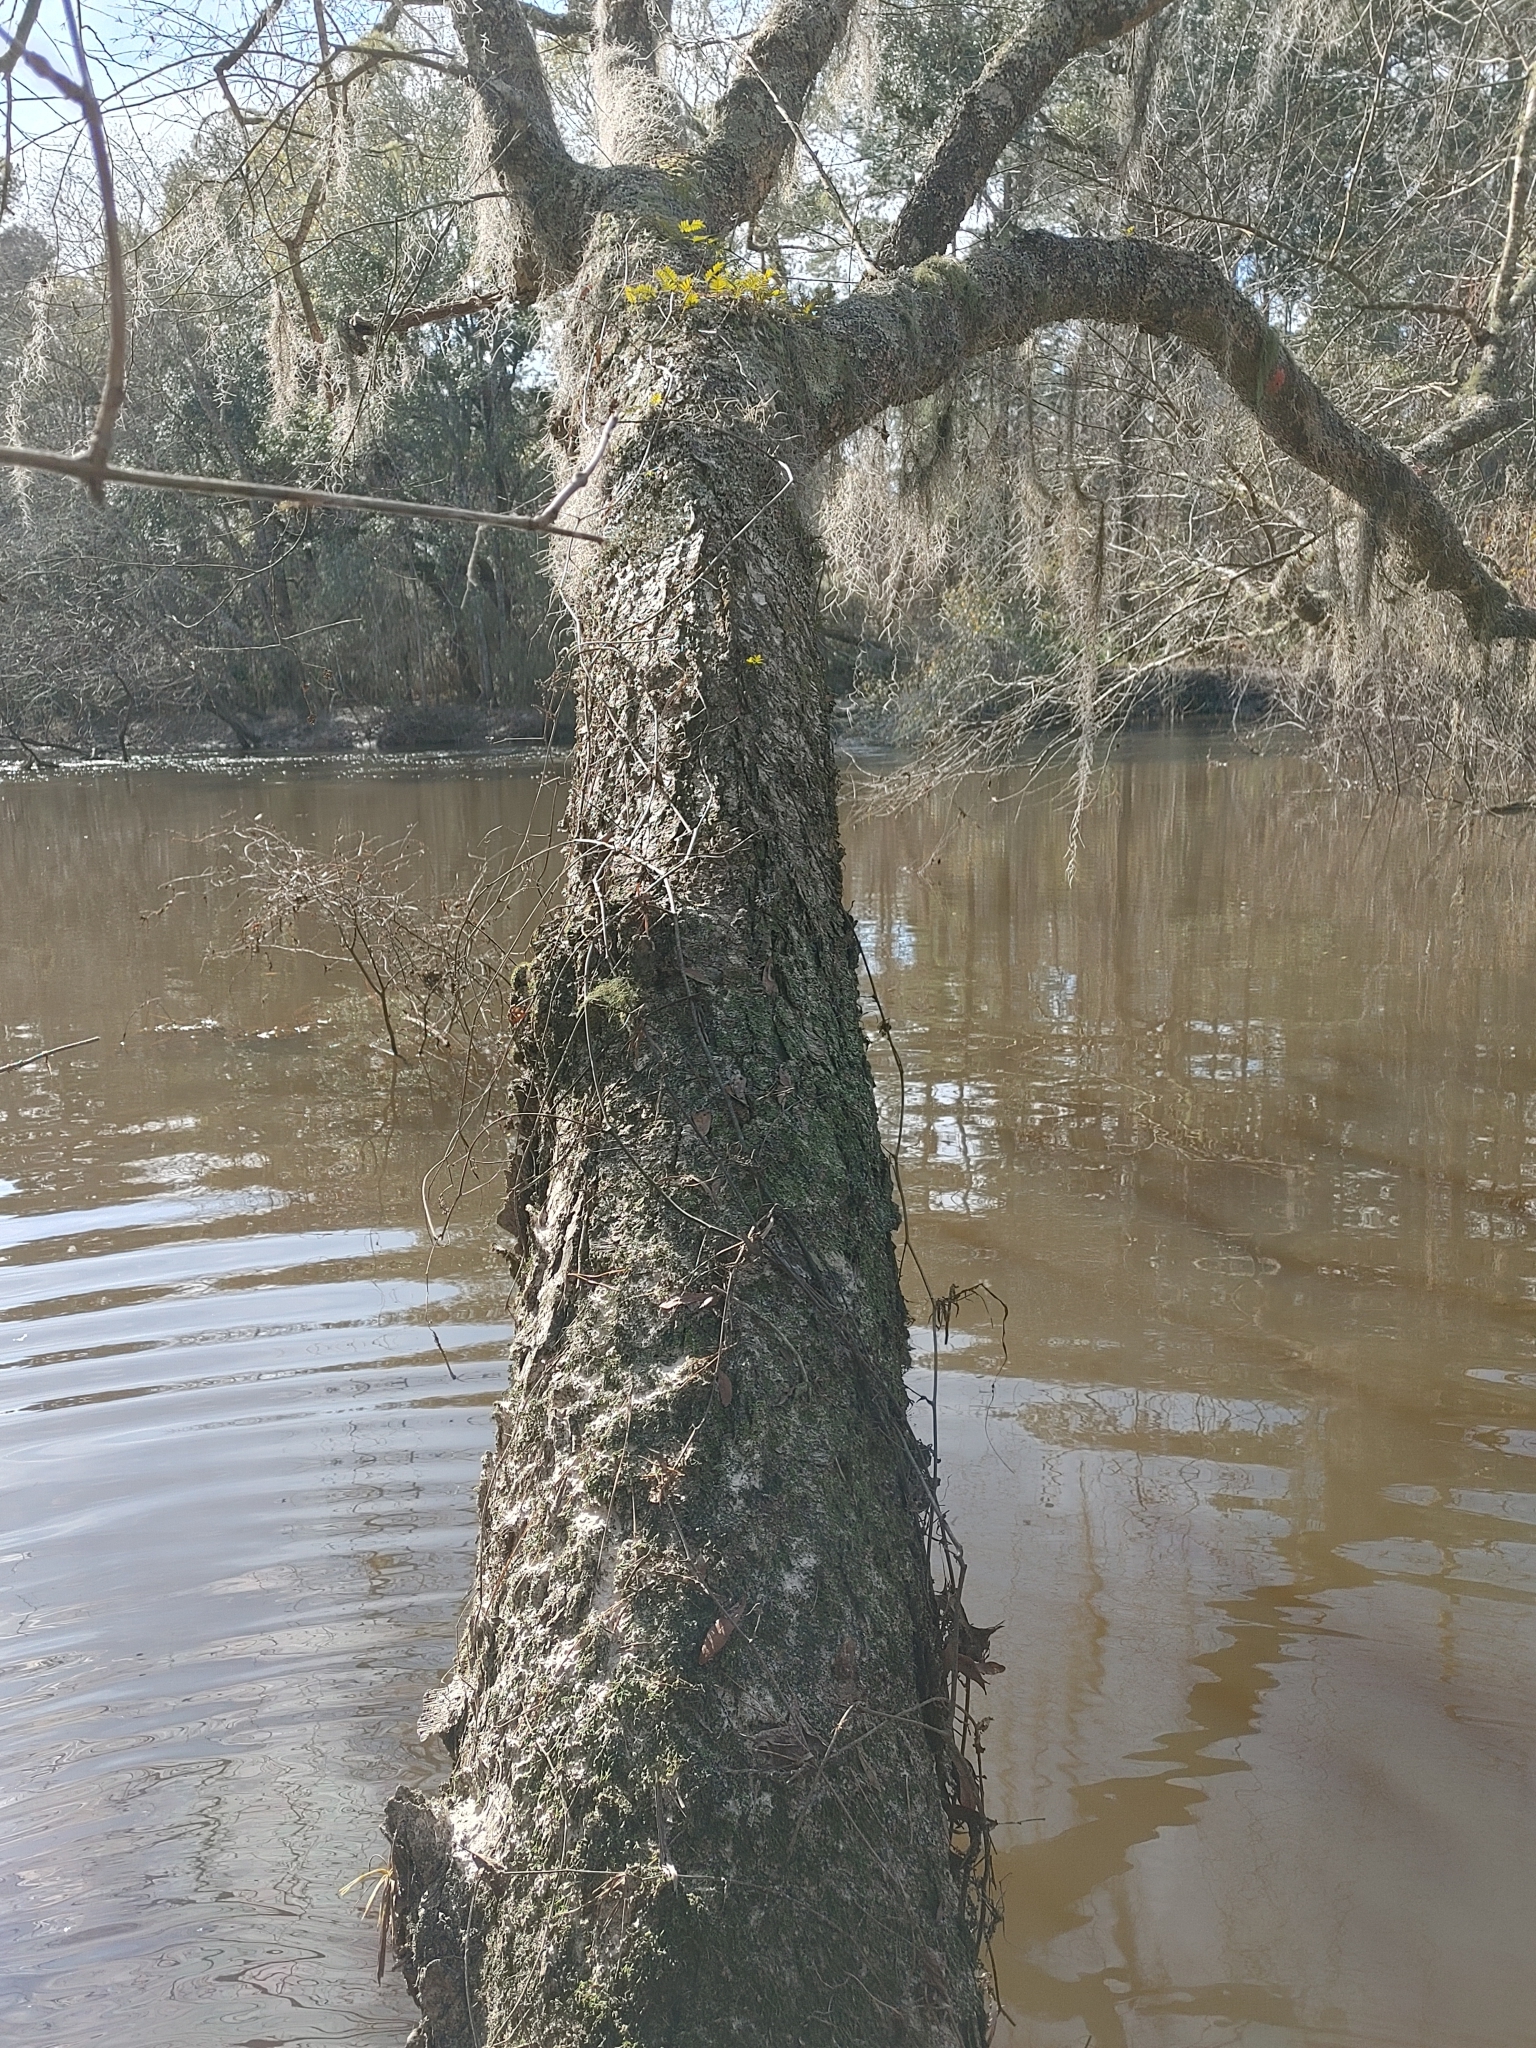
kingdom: Plantae
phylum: Tracheophyta
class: Magnoliopsida
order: Fagales
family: Betulaceae
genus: Betula
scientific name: Betula nigra
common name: Black birch
